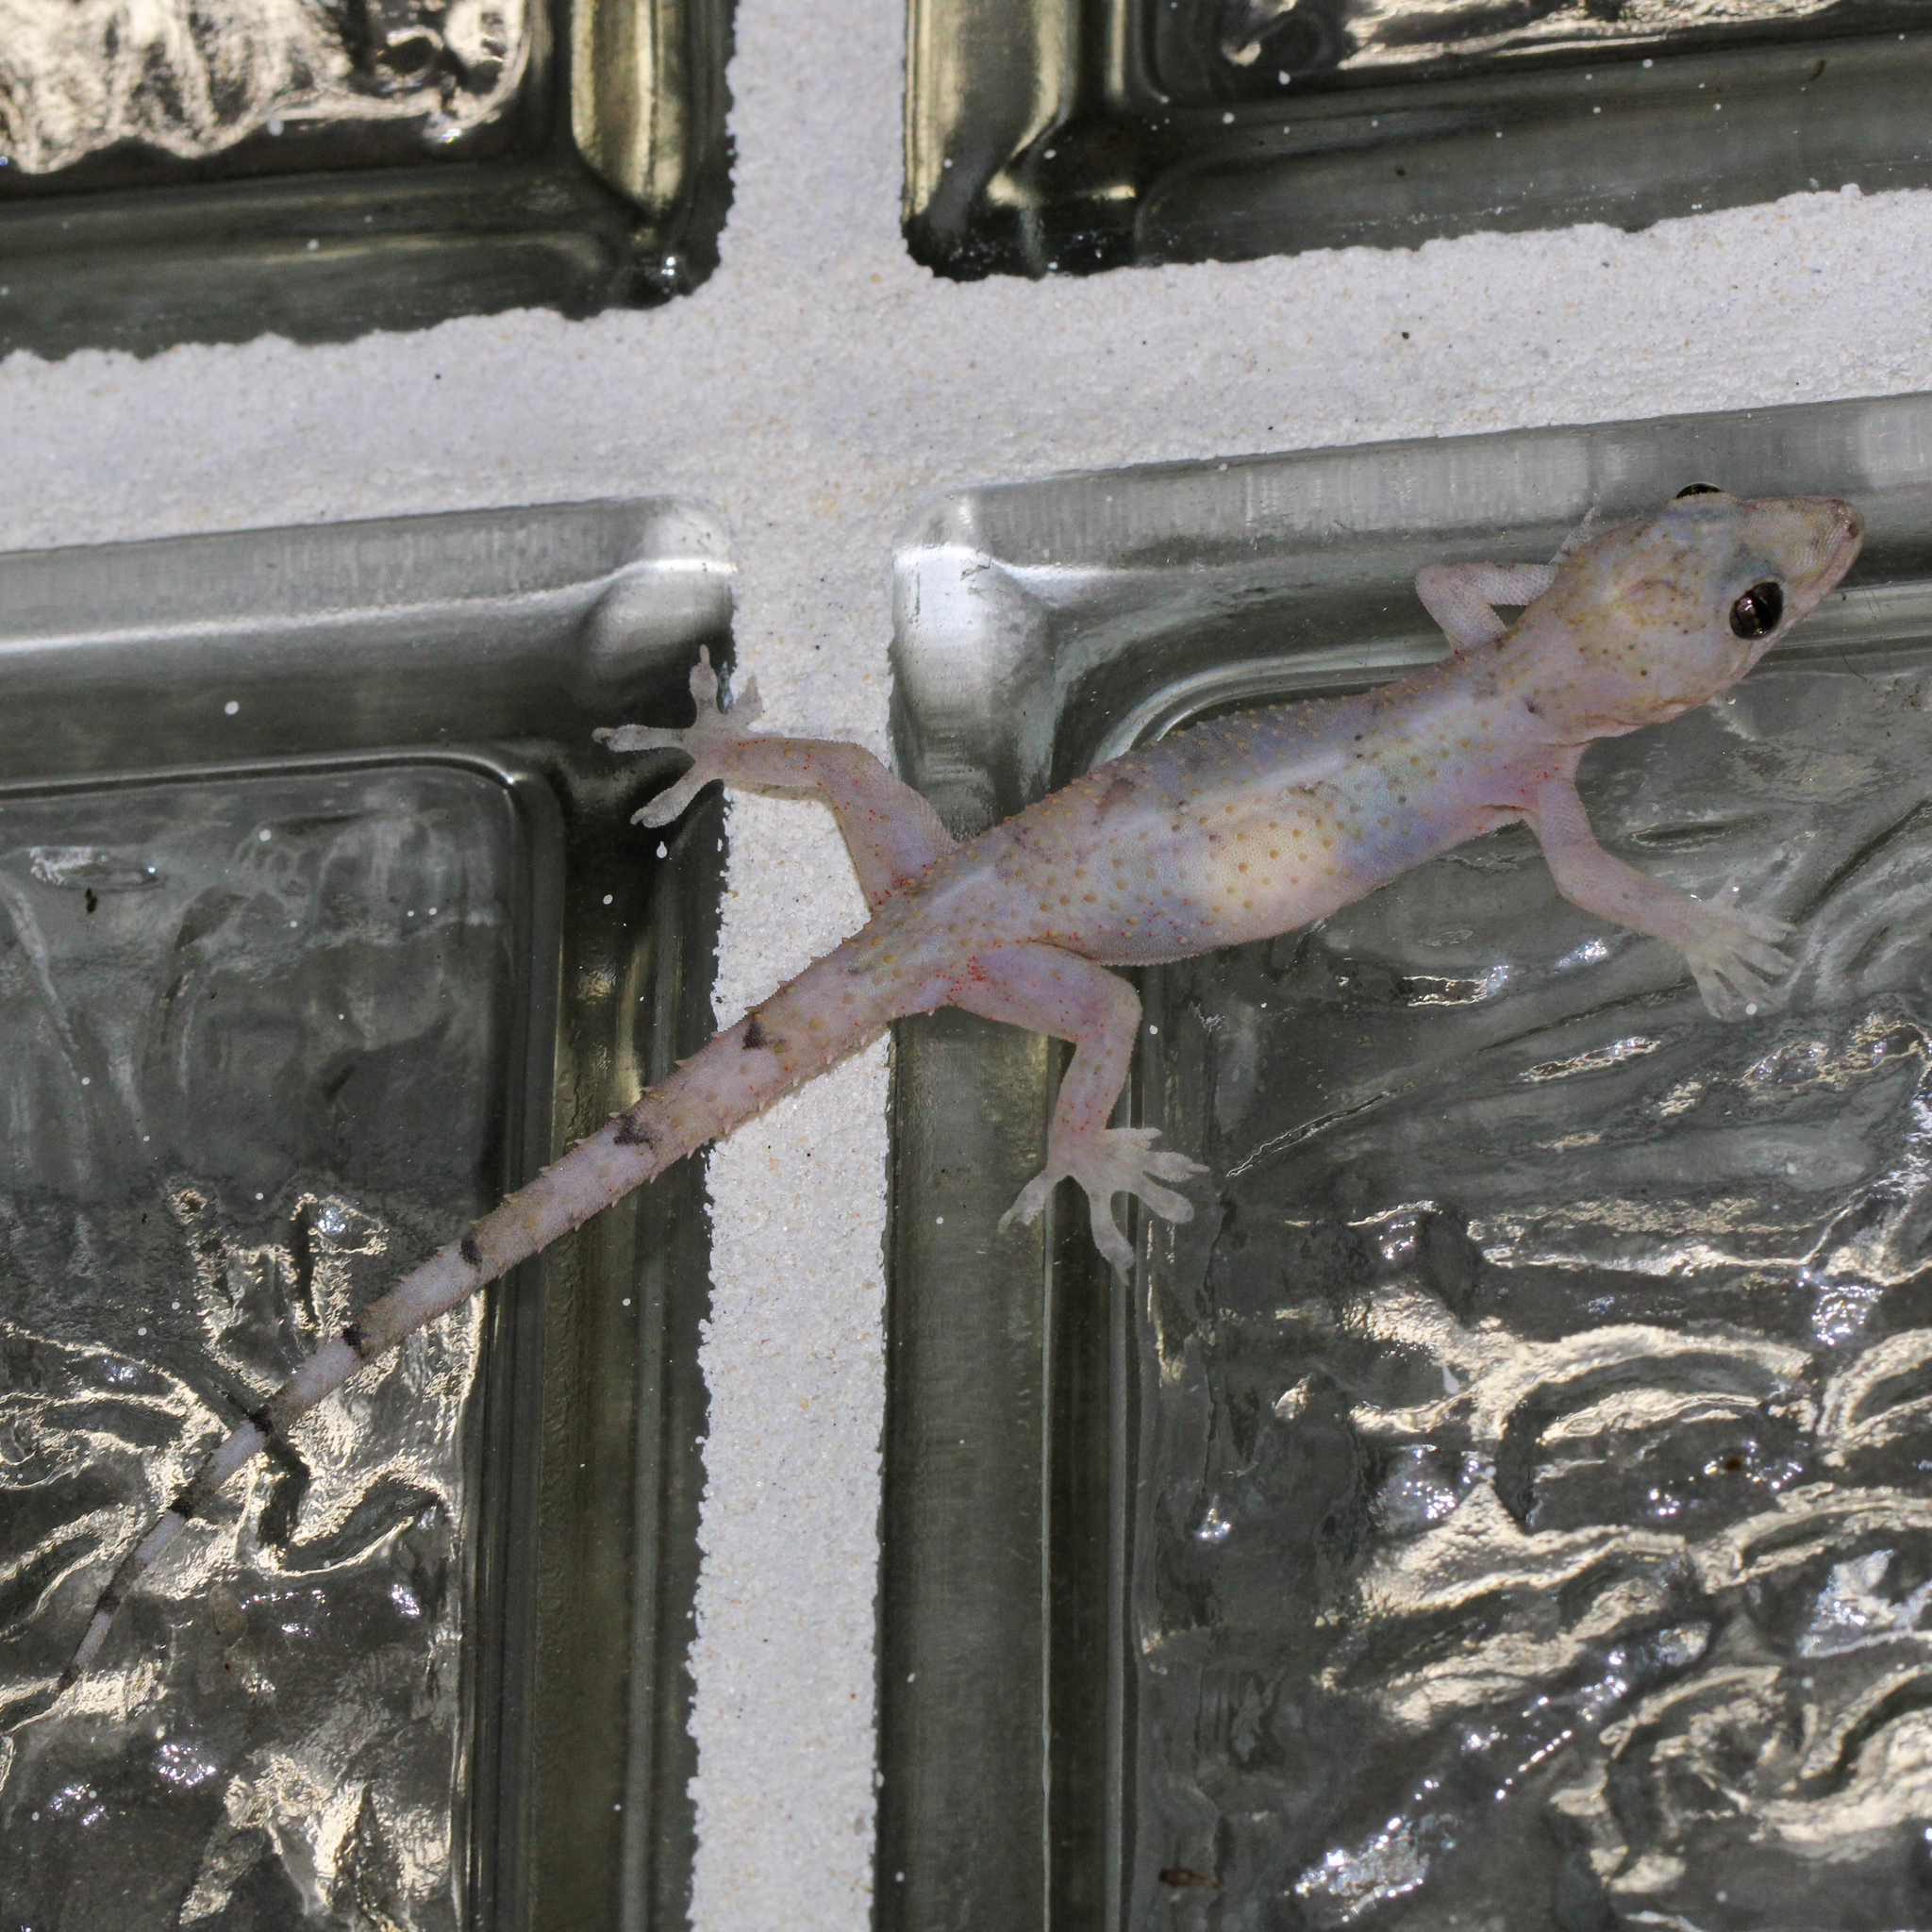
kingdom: Animalia
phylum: Chordata
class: Squamata
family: Gekkonidae
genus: Hemidactylus
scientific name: Hemidactylus mabouia
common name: House gecko
